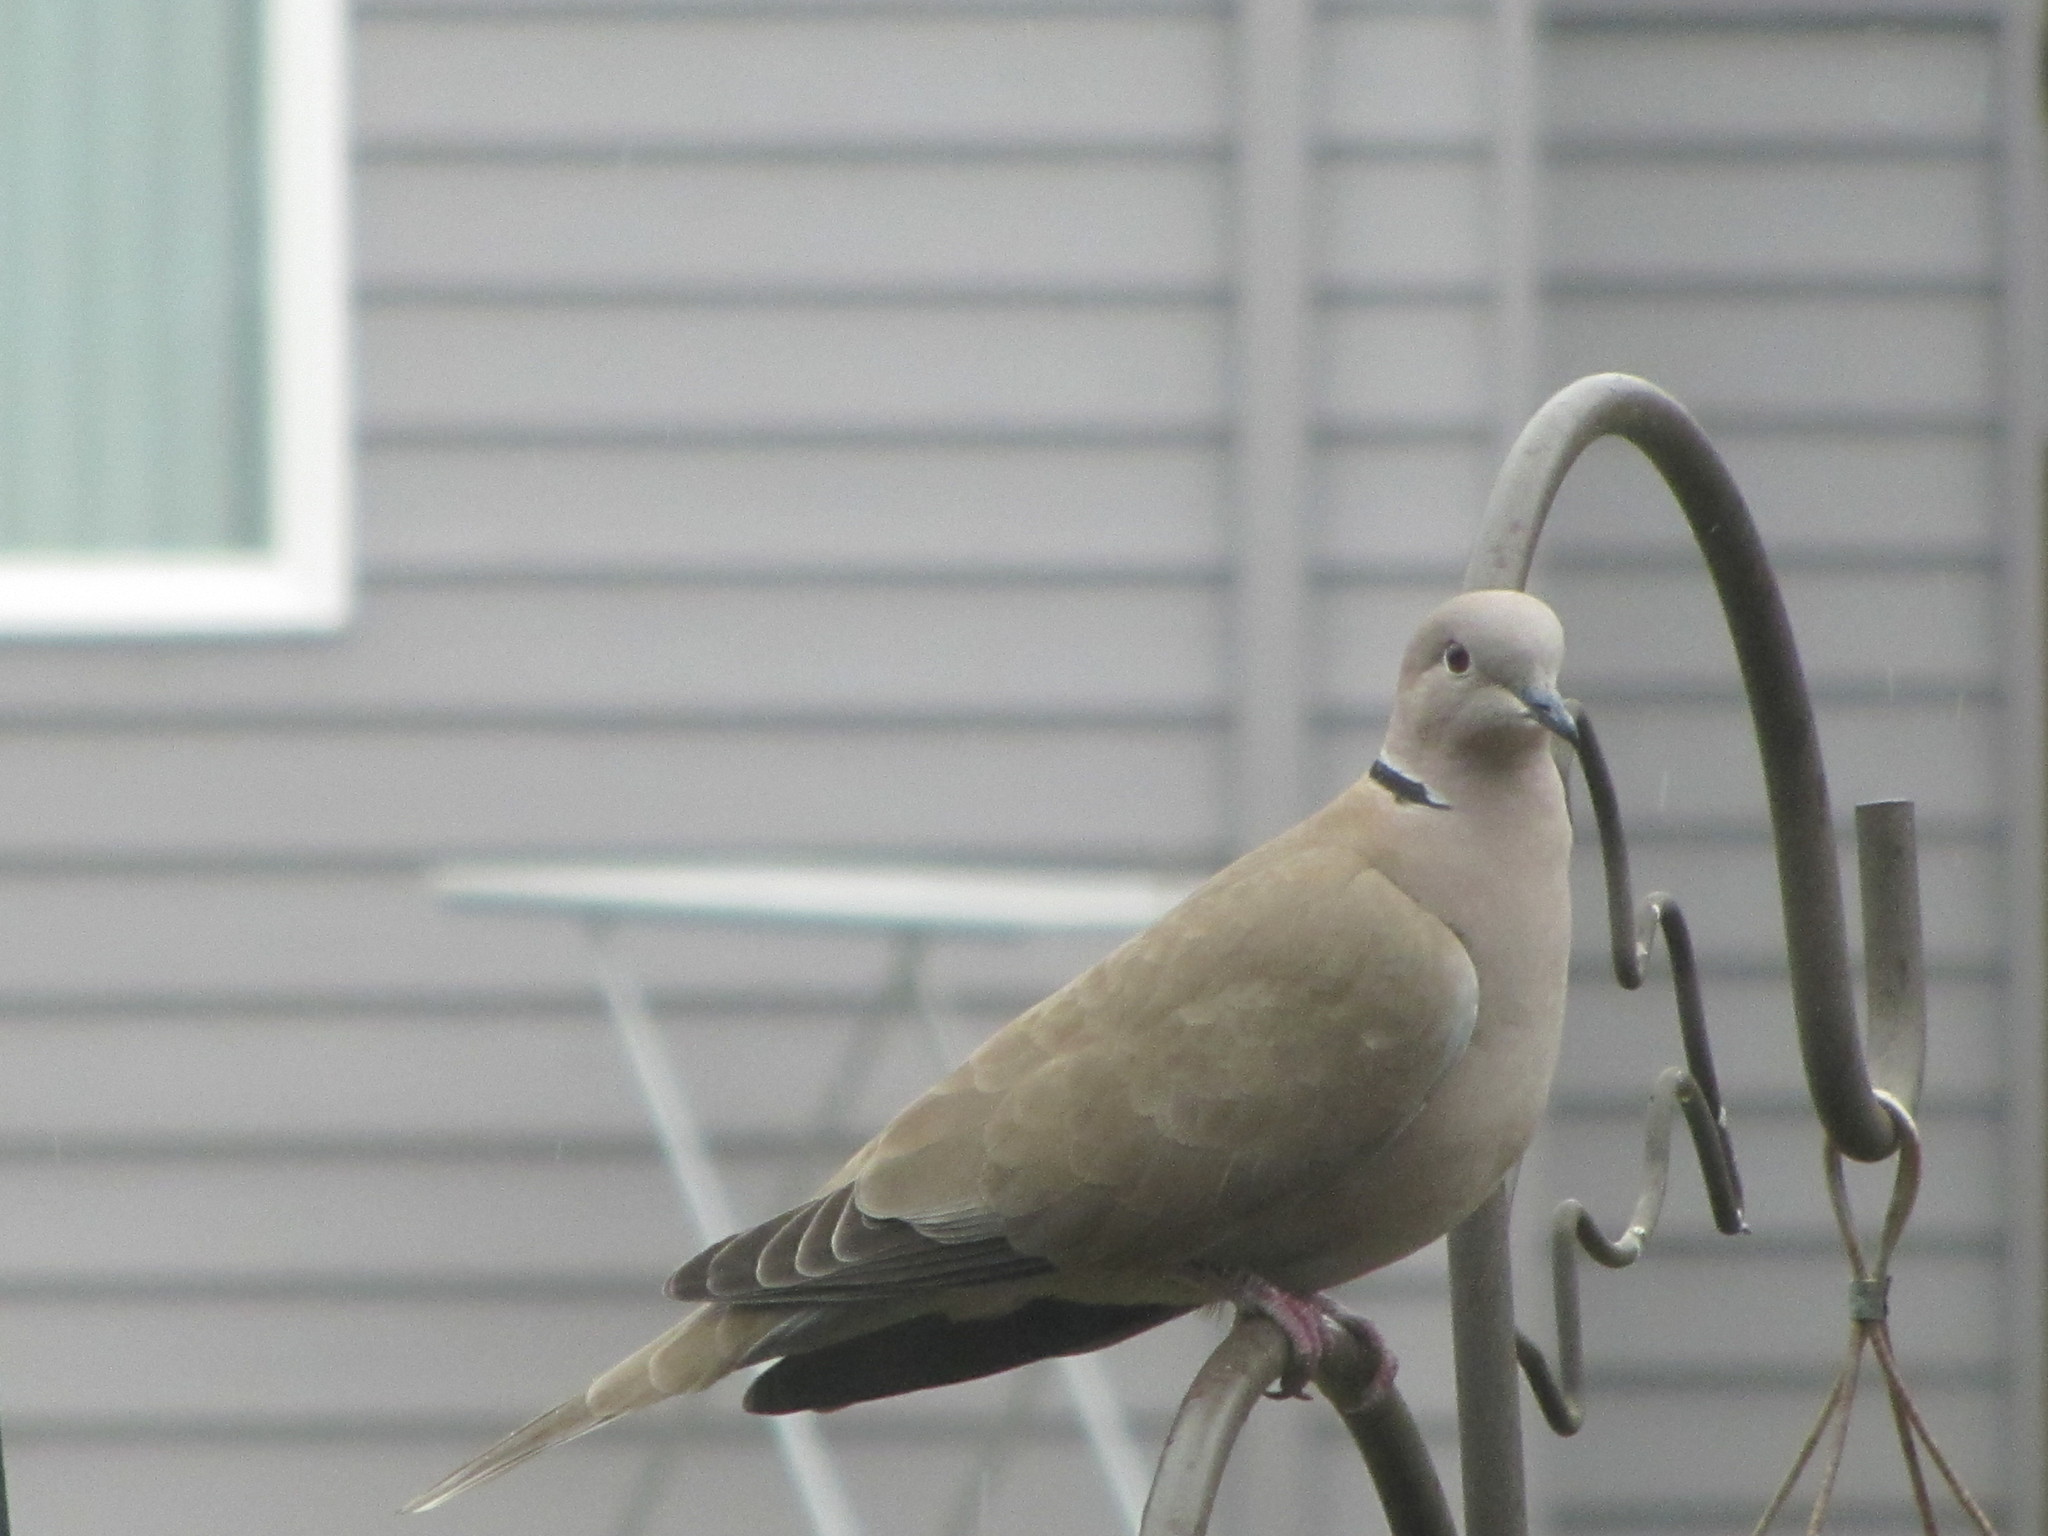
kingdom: Animalia
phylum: Chordata
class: Aves
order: Columbiformes
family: Columbidae
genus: Streptopelia
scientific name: Streptopelia decaocto
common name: Eurasian collared dove
